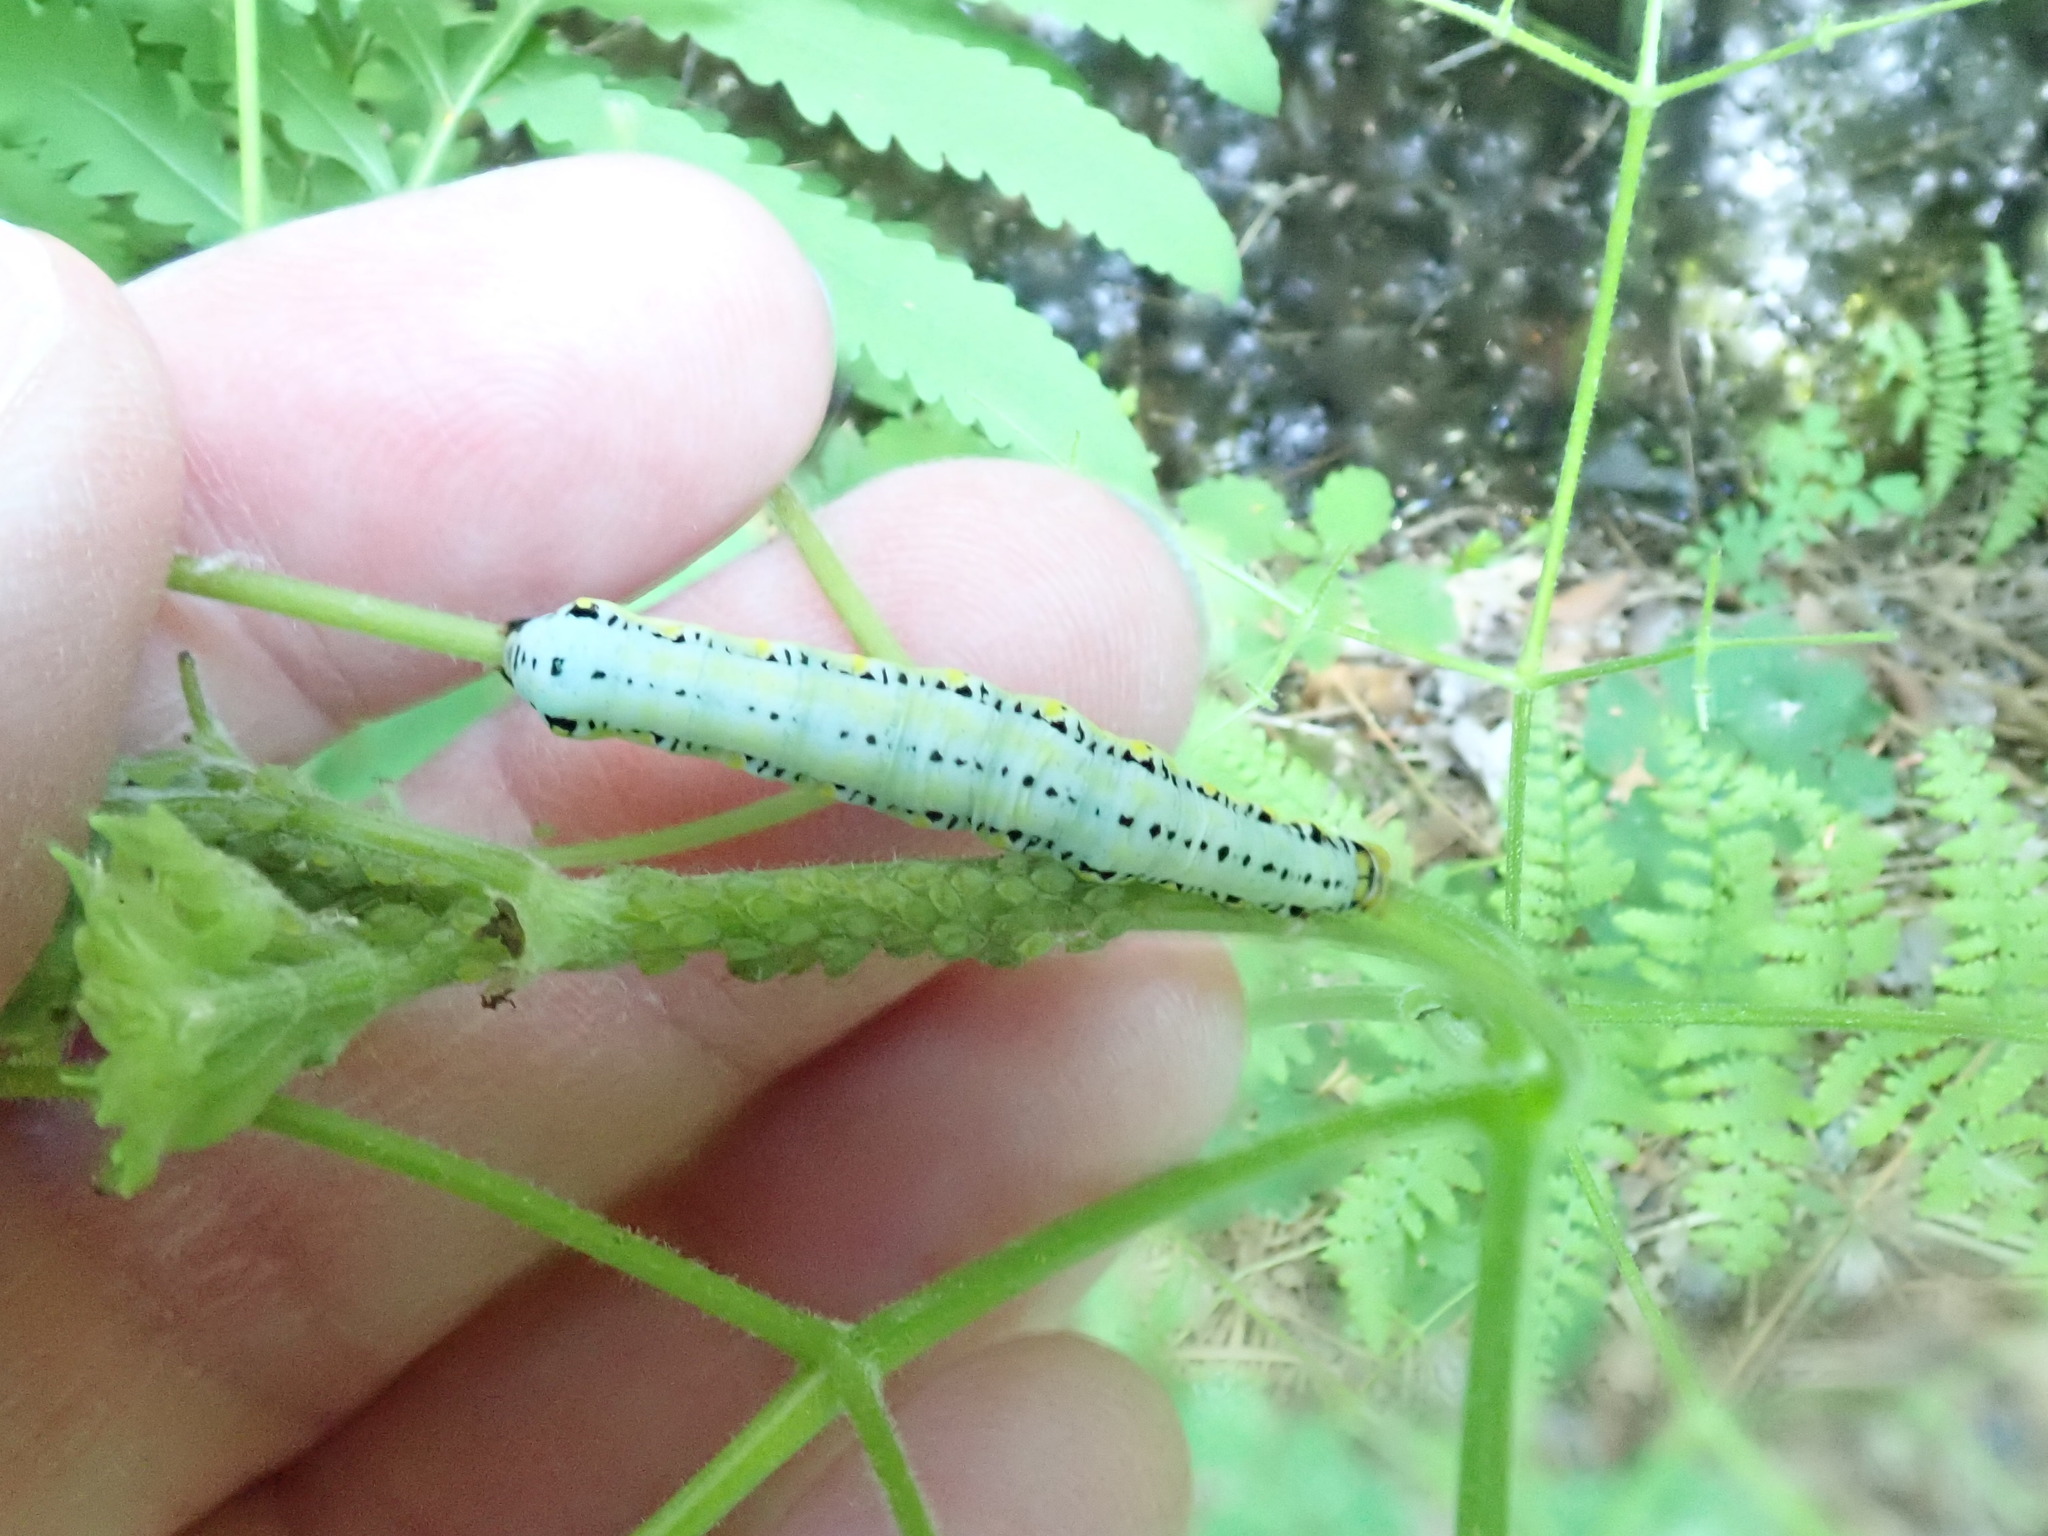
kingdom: Animalia
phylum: Arthropoda
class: Insecta
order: Lepidoptera
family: Erebidae
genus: Calyptra
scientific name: Calyptra canadensis
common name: Canadian owlet
